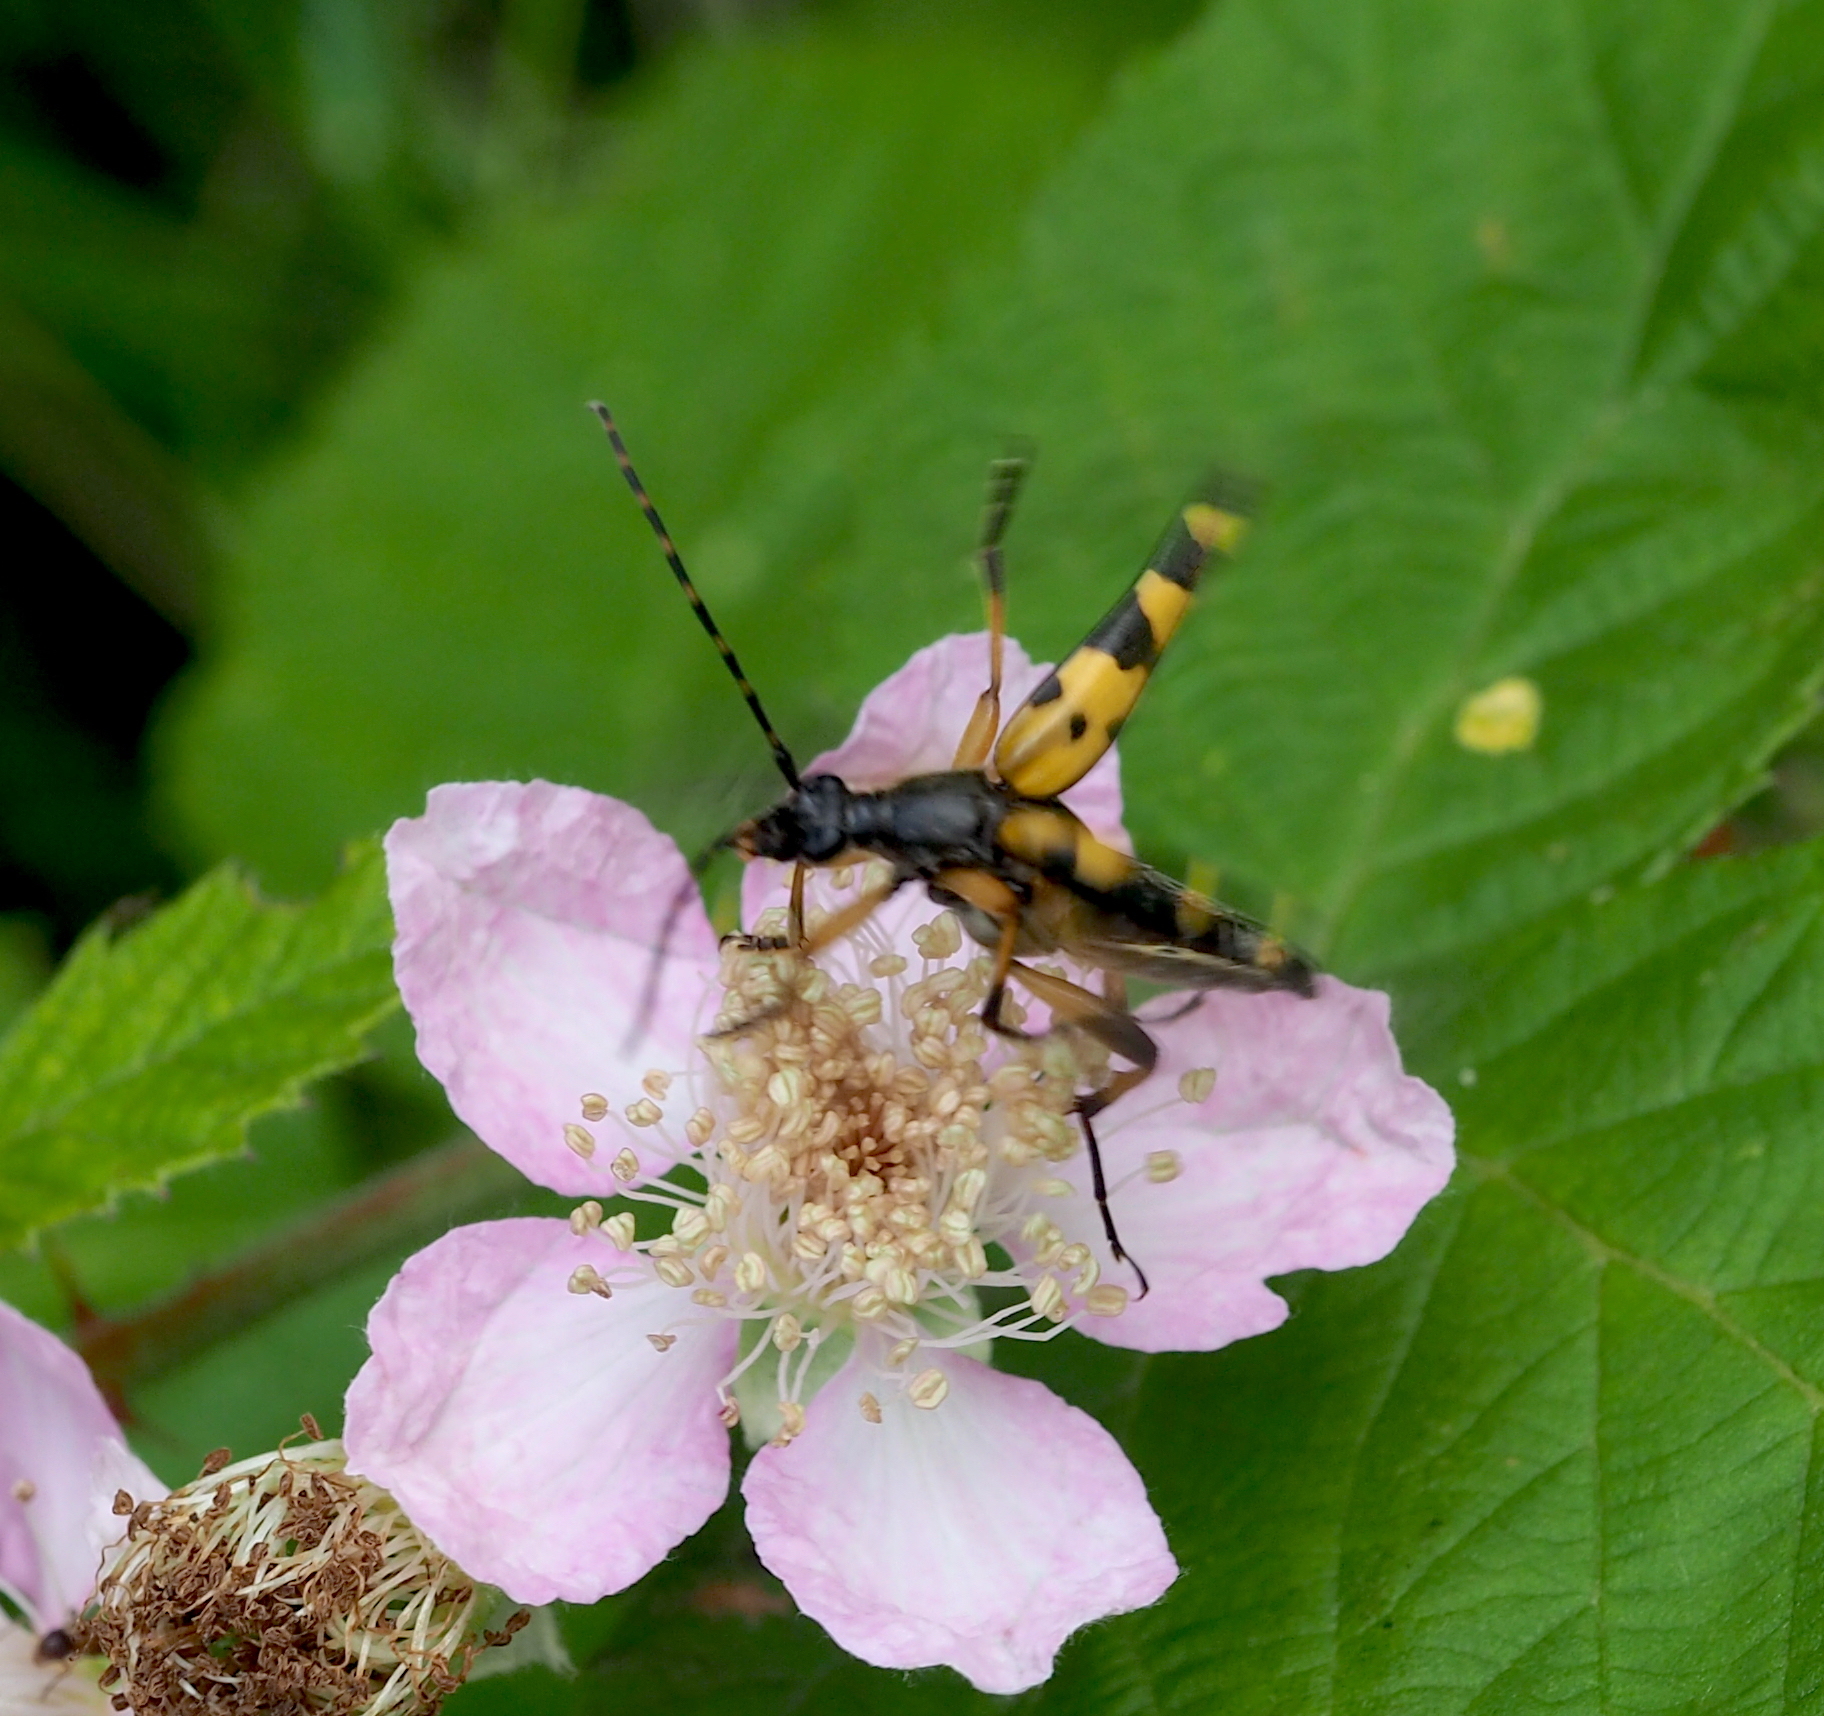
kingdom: Animalia
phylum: Arthropoda
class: Insecta
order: Coleoptera
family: Cerambycidae
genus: Rutpela
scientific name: Rutpela maculata
